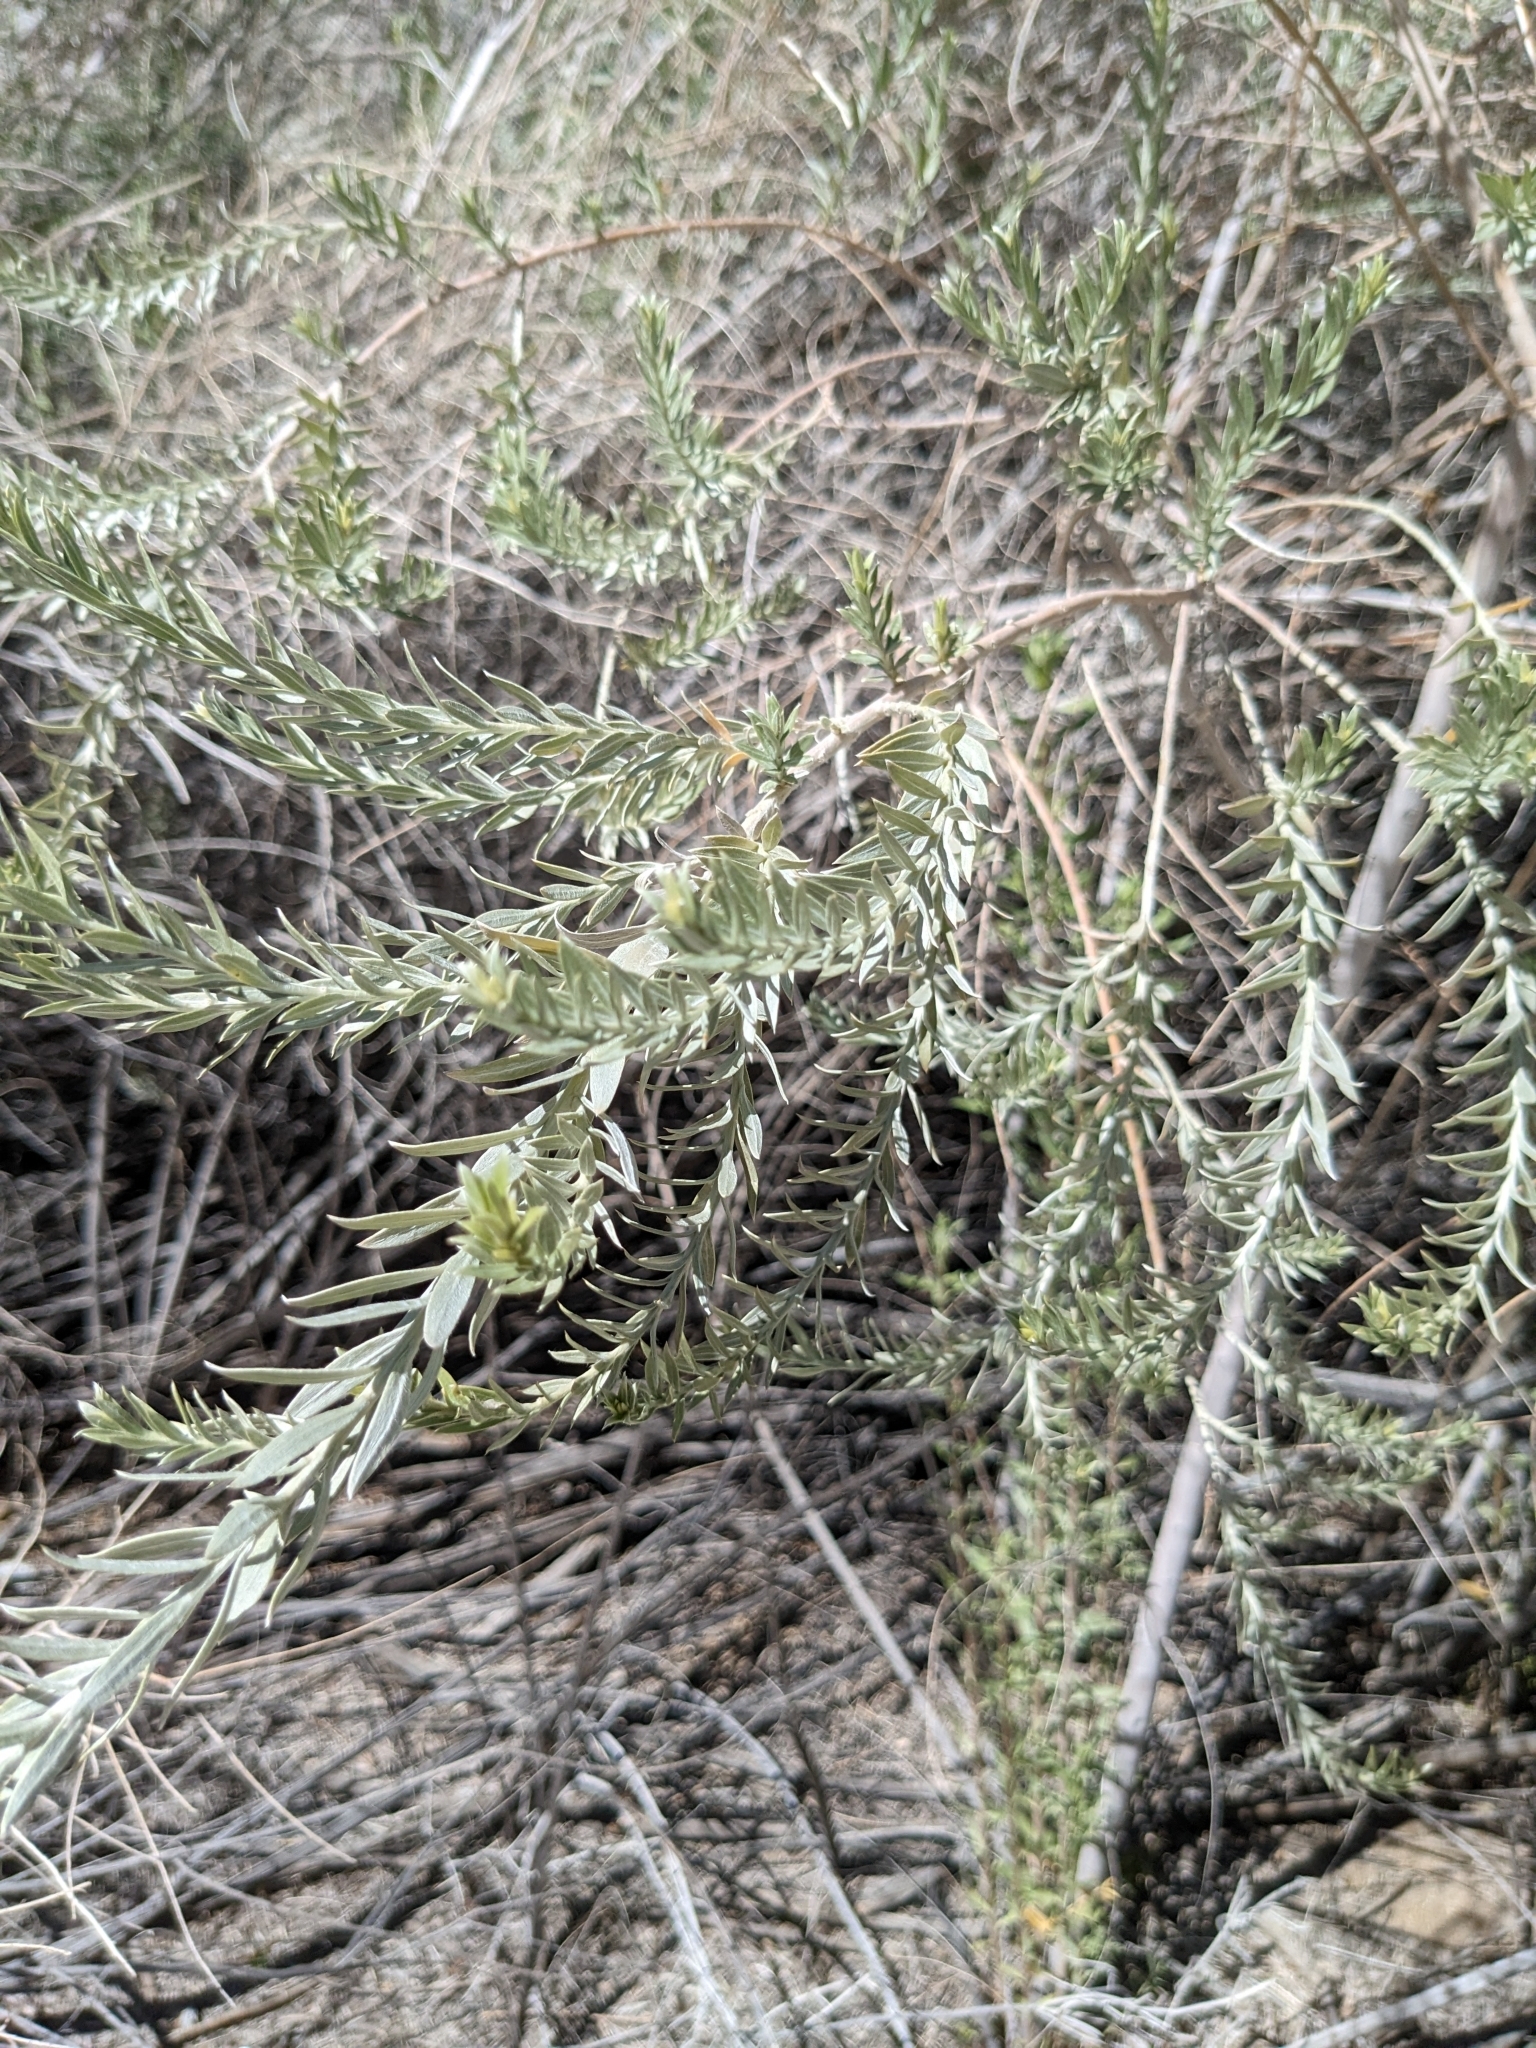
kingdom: Plantae
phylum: Tracheophyta
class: Magnoliopsida
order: Asterales
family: Asteraceae
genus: Pluchea
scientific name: Pluchea sericea
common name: Arrow-weed
